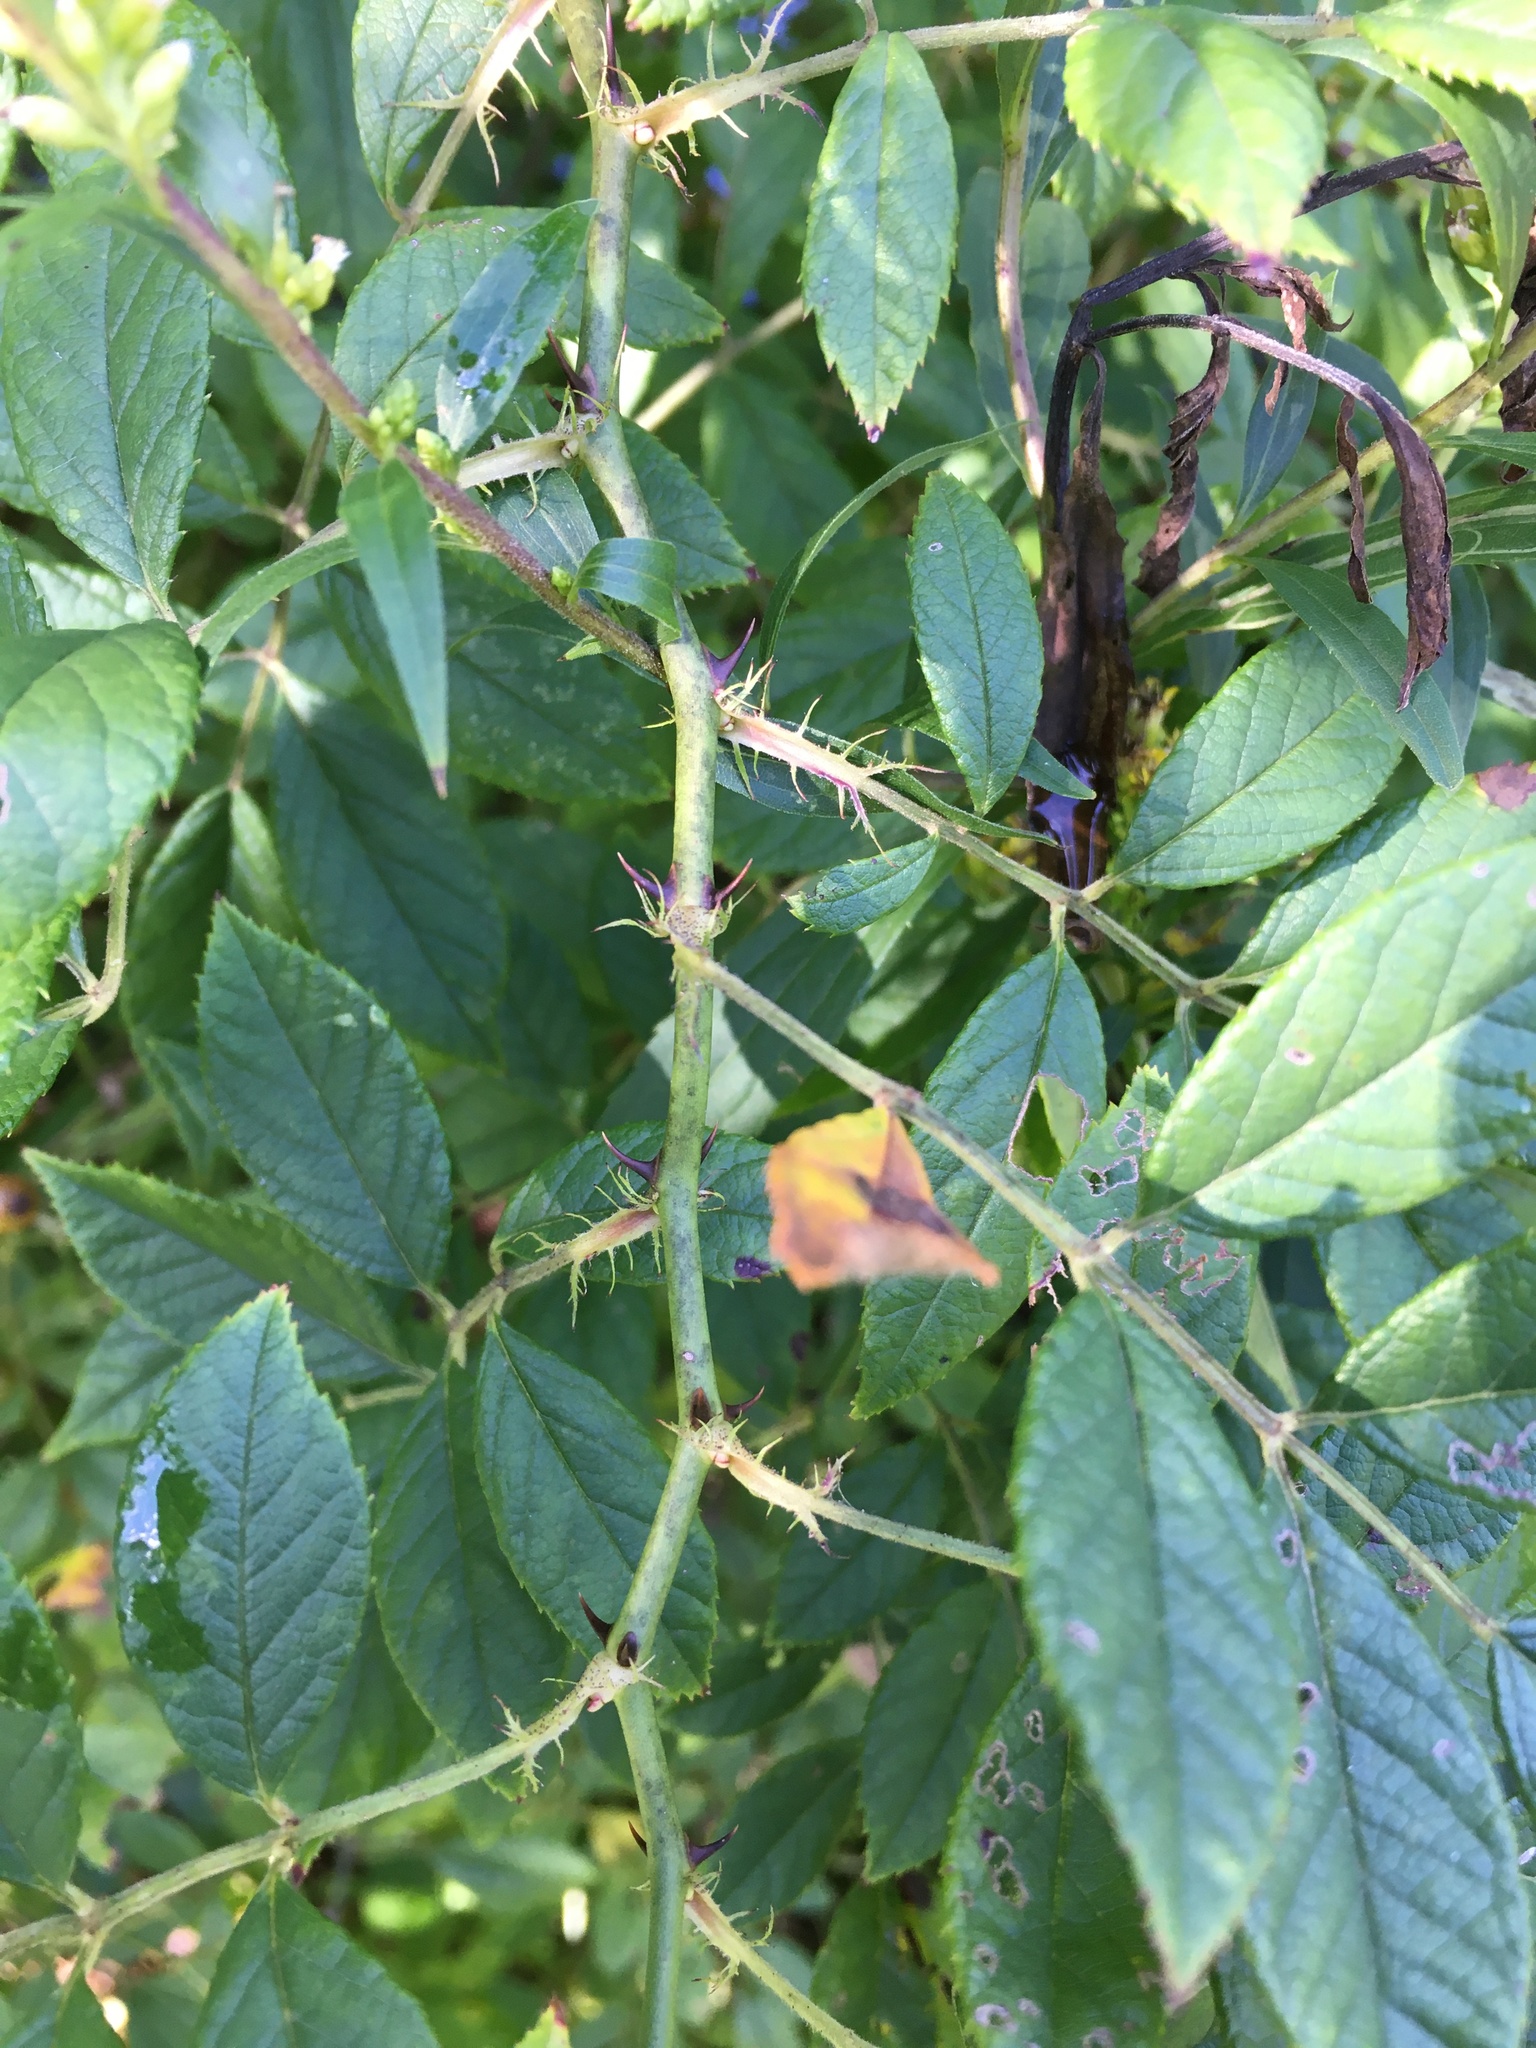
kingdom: Plantae
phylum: Tracheophyta
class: Magnoliopsida
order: Rosales
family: Rosaceae
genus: Rosa
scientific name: Rosa multiflora
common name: Multiflora rose
